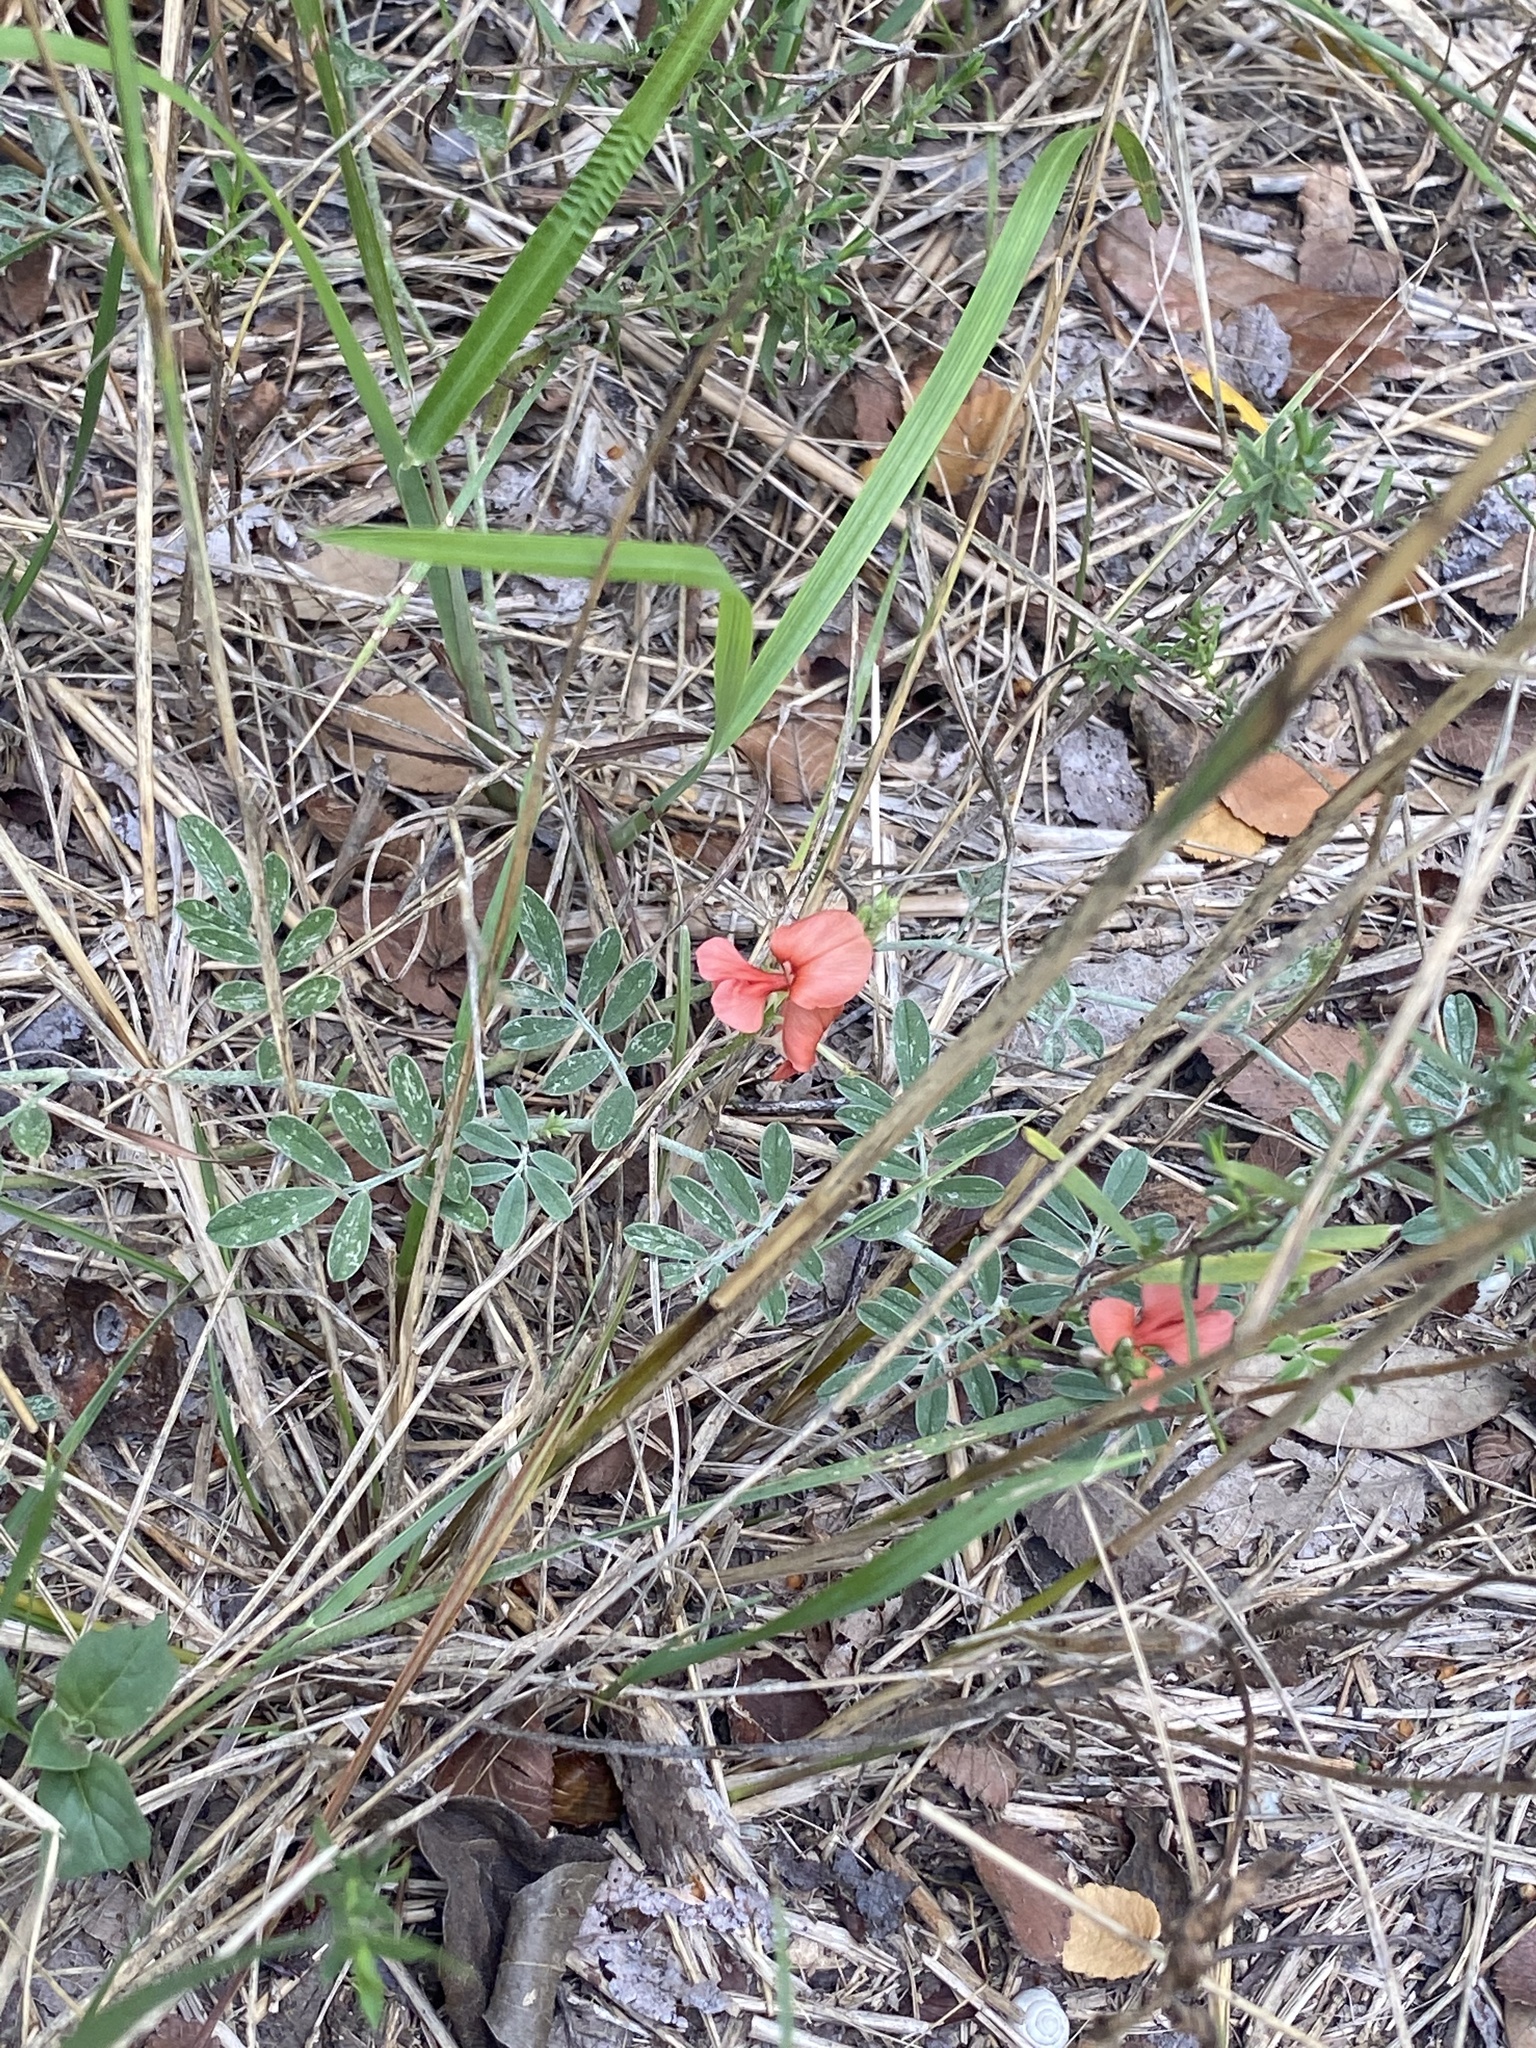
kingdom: Plantae
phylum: Tracheophyta
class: Magnoliopsida
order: Fabales
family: Fabaceae
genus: Indigofera
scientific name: Indigofera miniata
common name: Coast indigo
